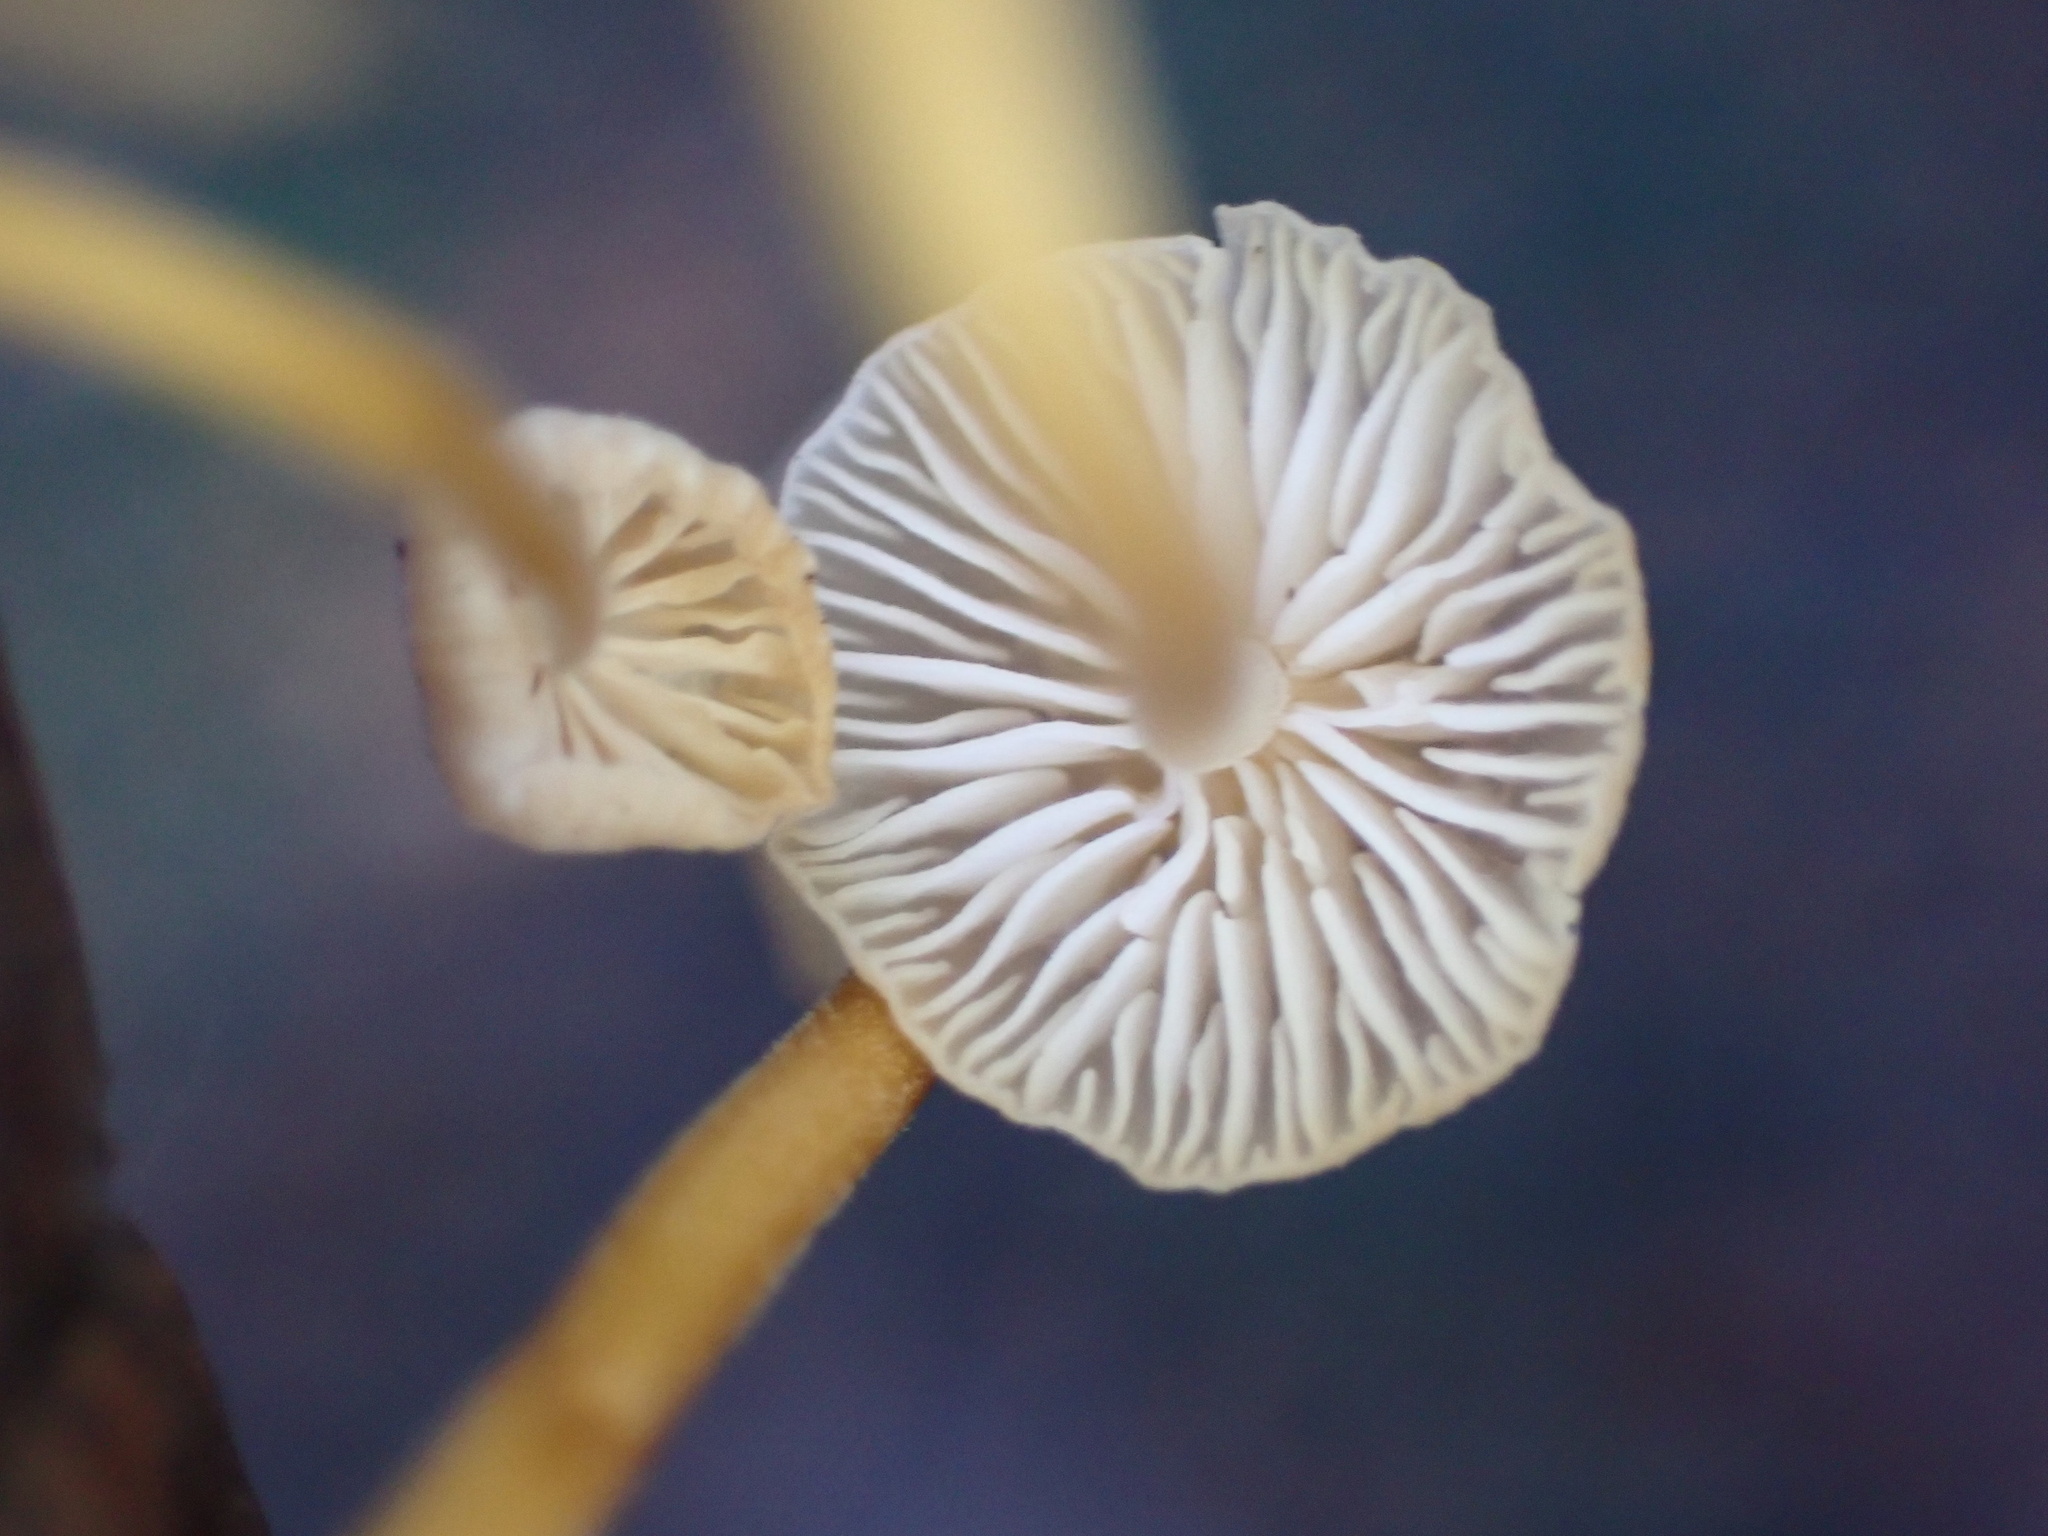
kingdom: Fungi
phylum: Basidiomycota
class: Agaricomycetes
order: Agaricales
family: Physalacriaceae
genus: Strobilurus
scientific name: Strobilurus trullisatus
